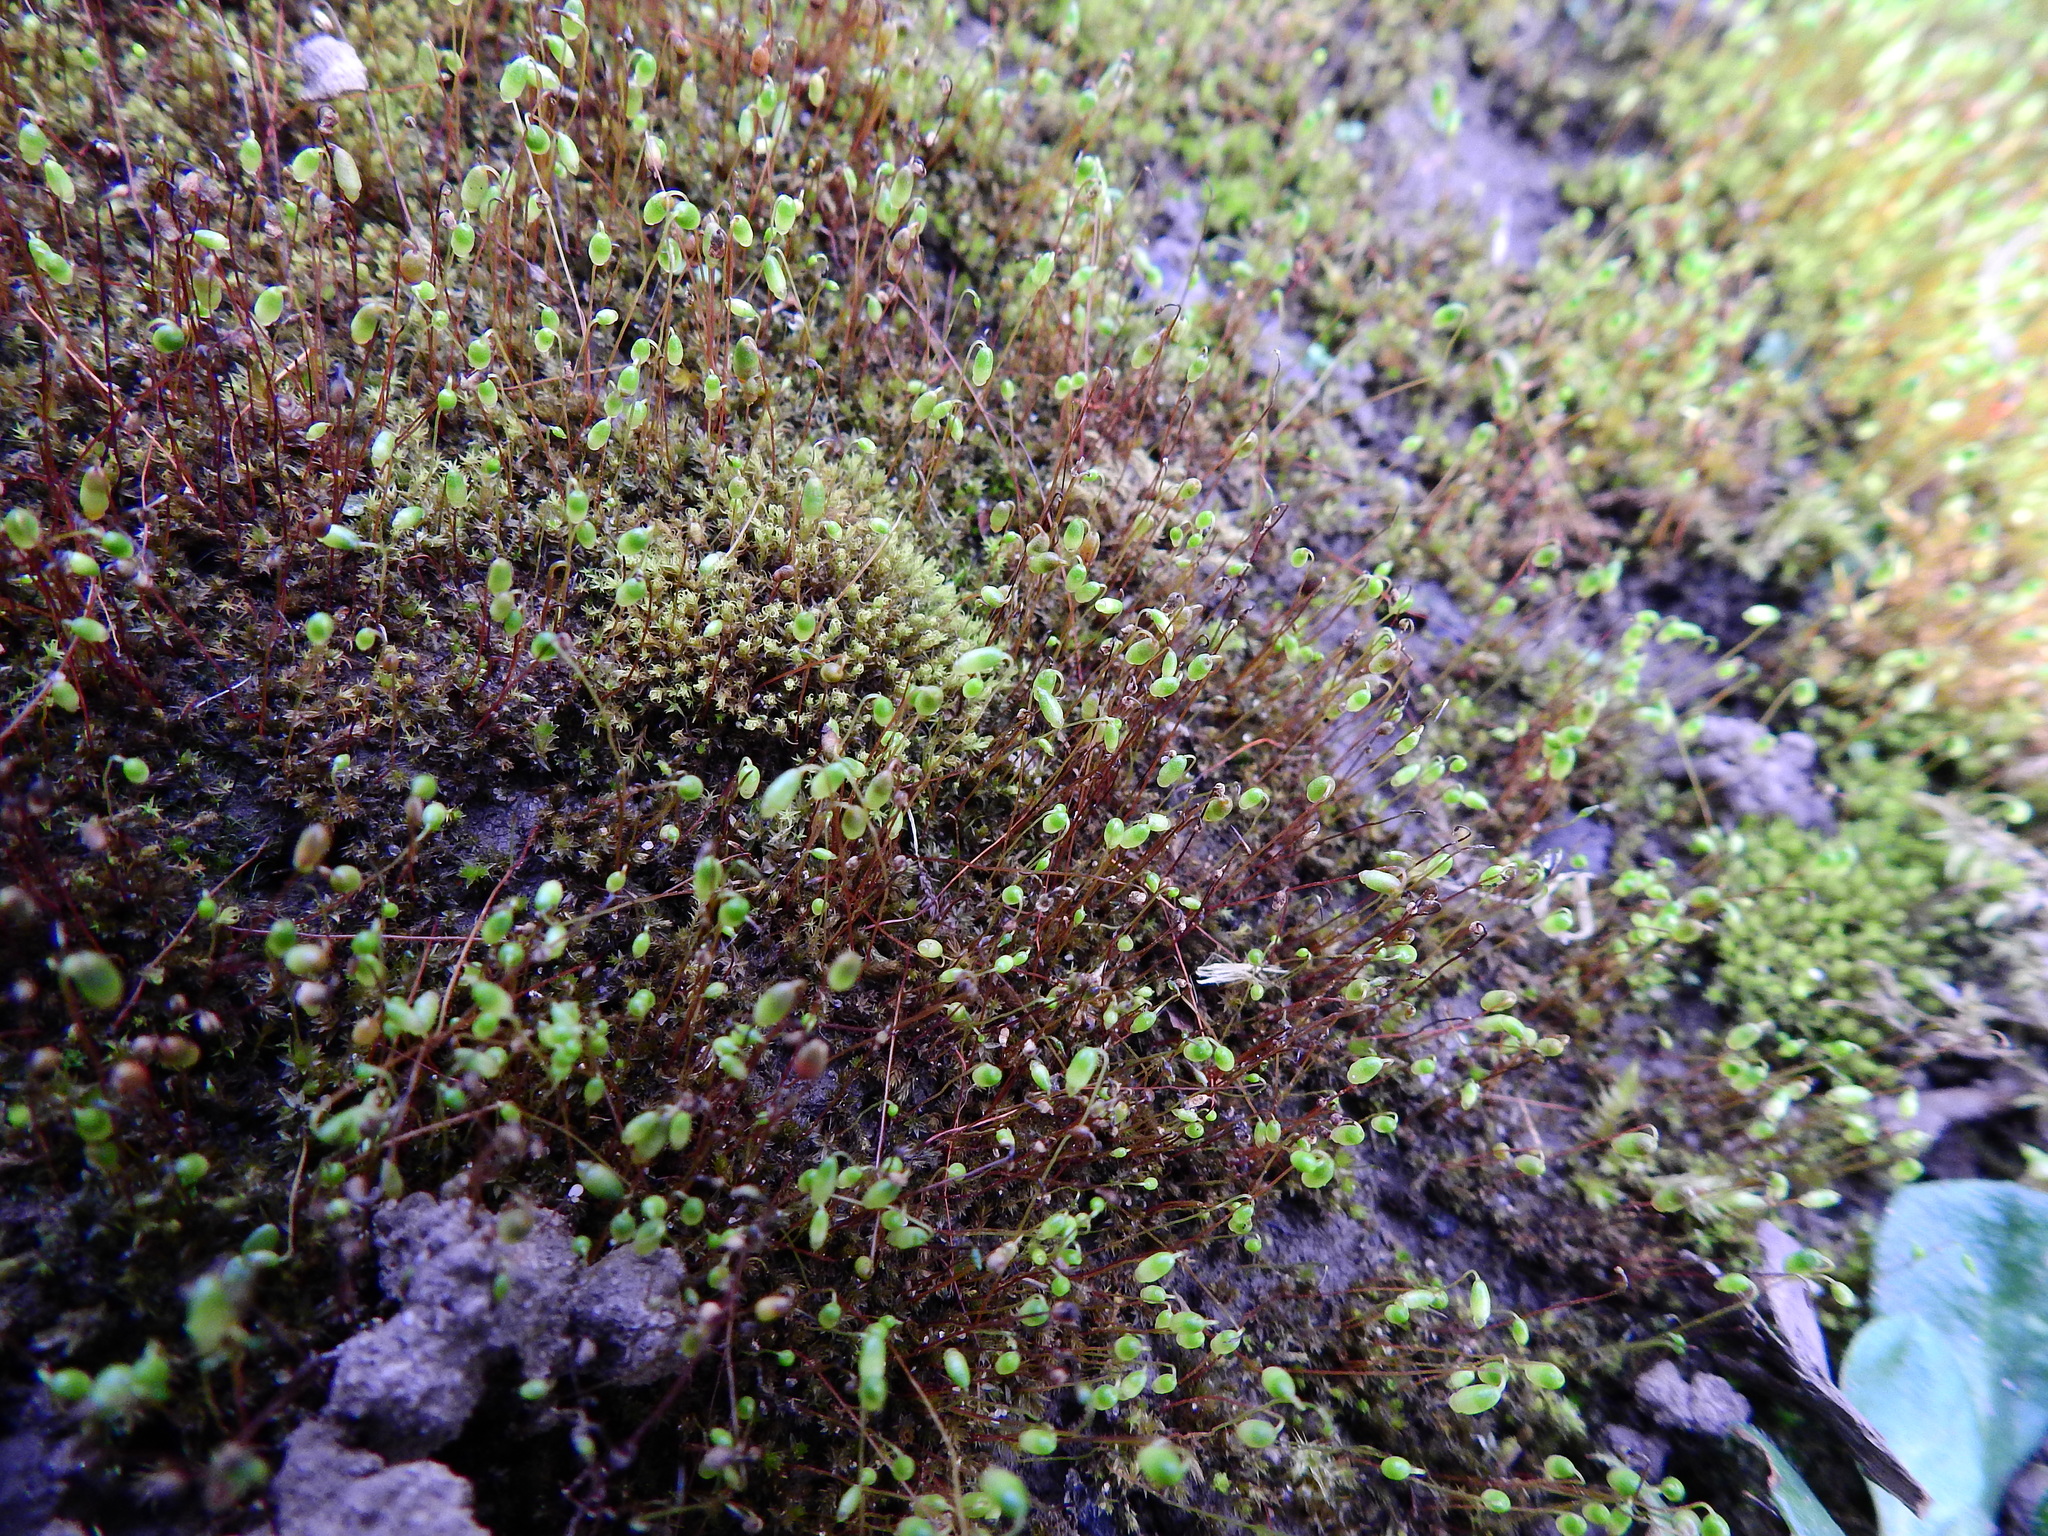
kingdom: Plantae
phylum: Bryophyta
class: Bryopsida
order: Bryales
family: Bryaceae
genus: Gemmabryum
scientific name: Gemmabryum caespiticium
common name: Handbell moss
